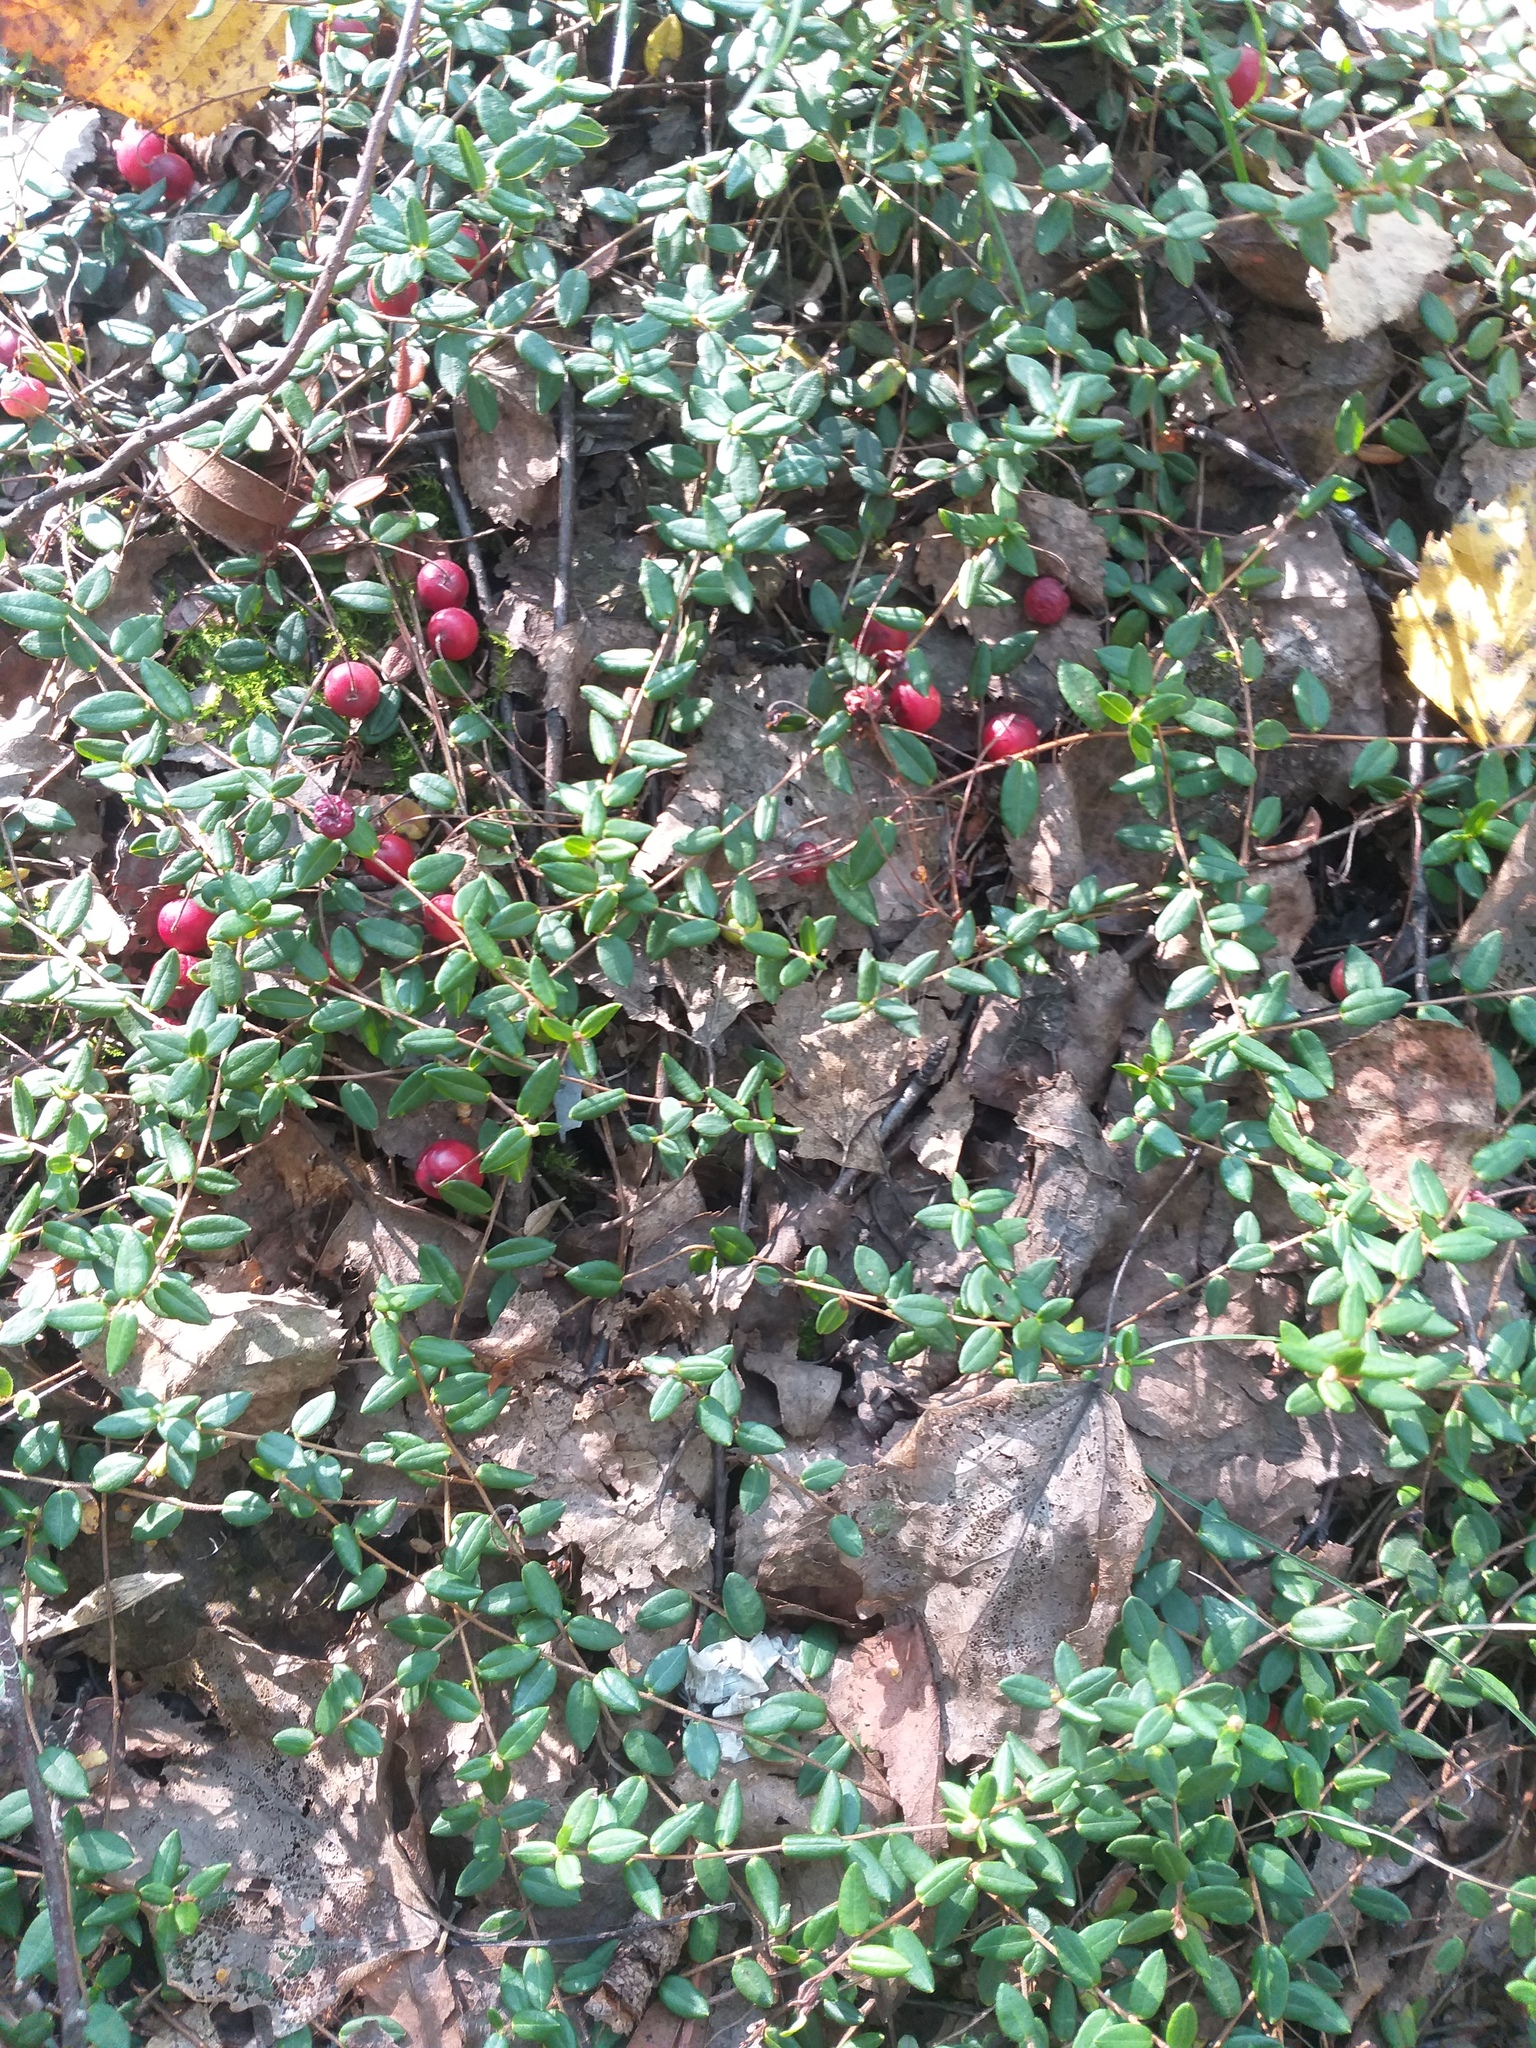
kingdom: Plantae
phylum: Tracheophyta
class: Magnoliopsida
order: Ericales
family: Ericaceae
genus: Vaccinium
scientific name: Vaccinium oxycoccos
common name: Cranberry
